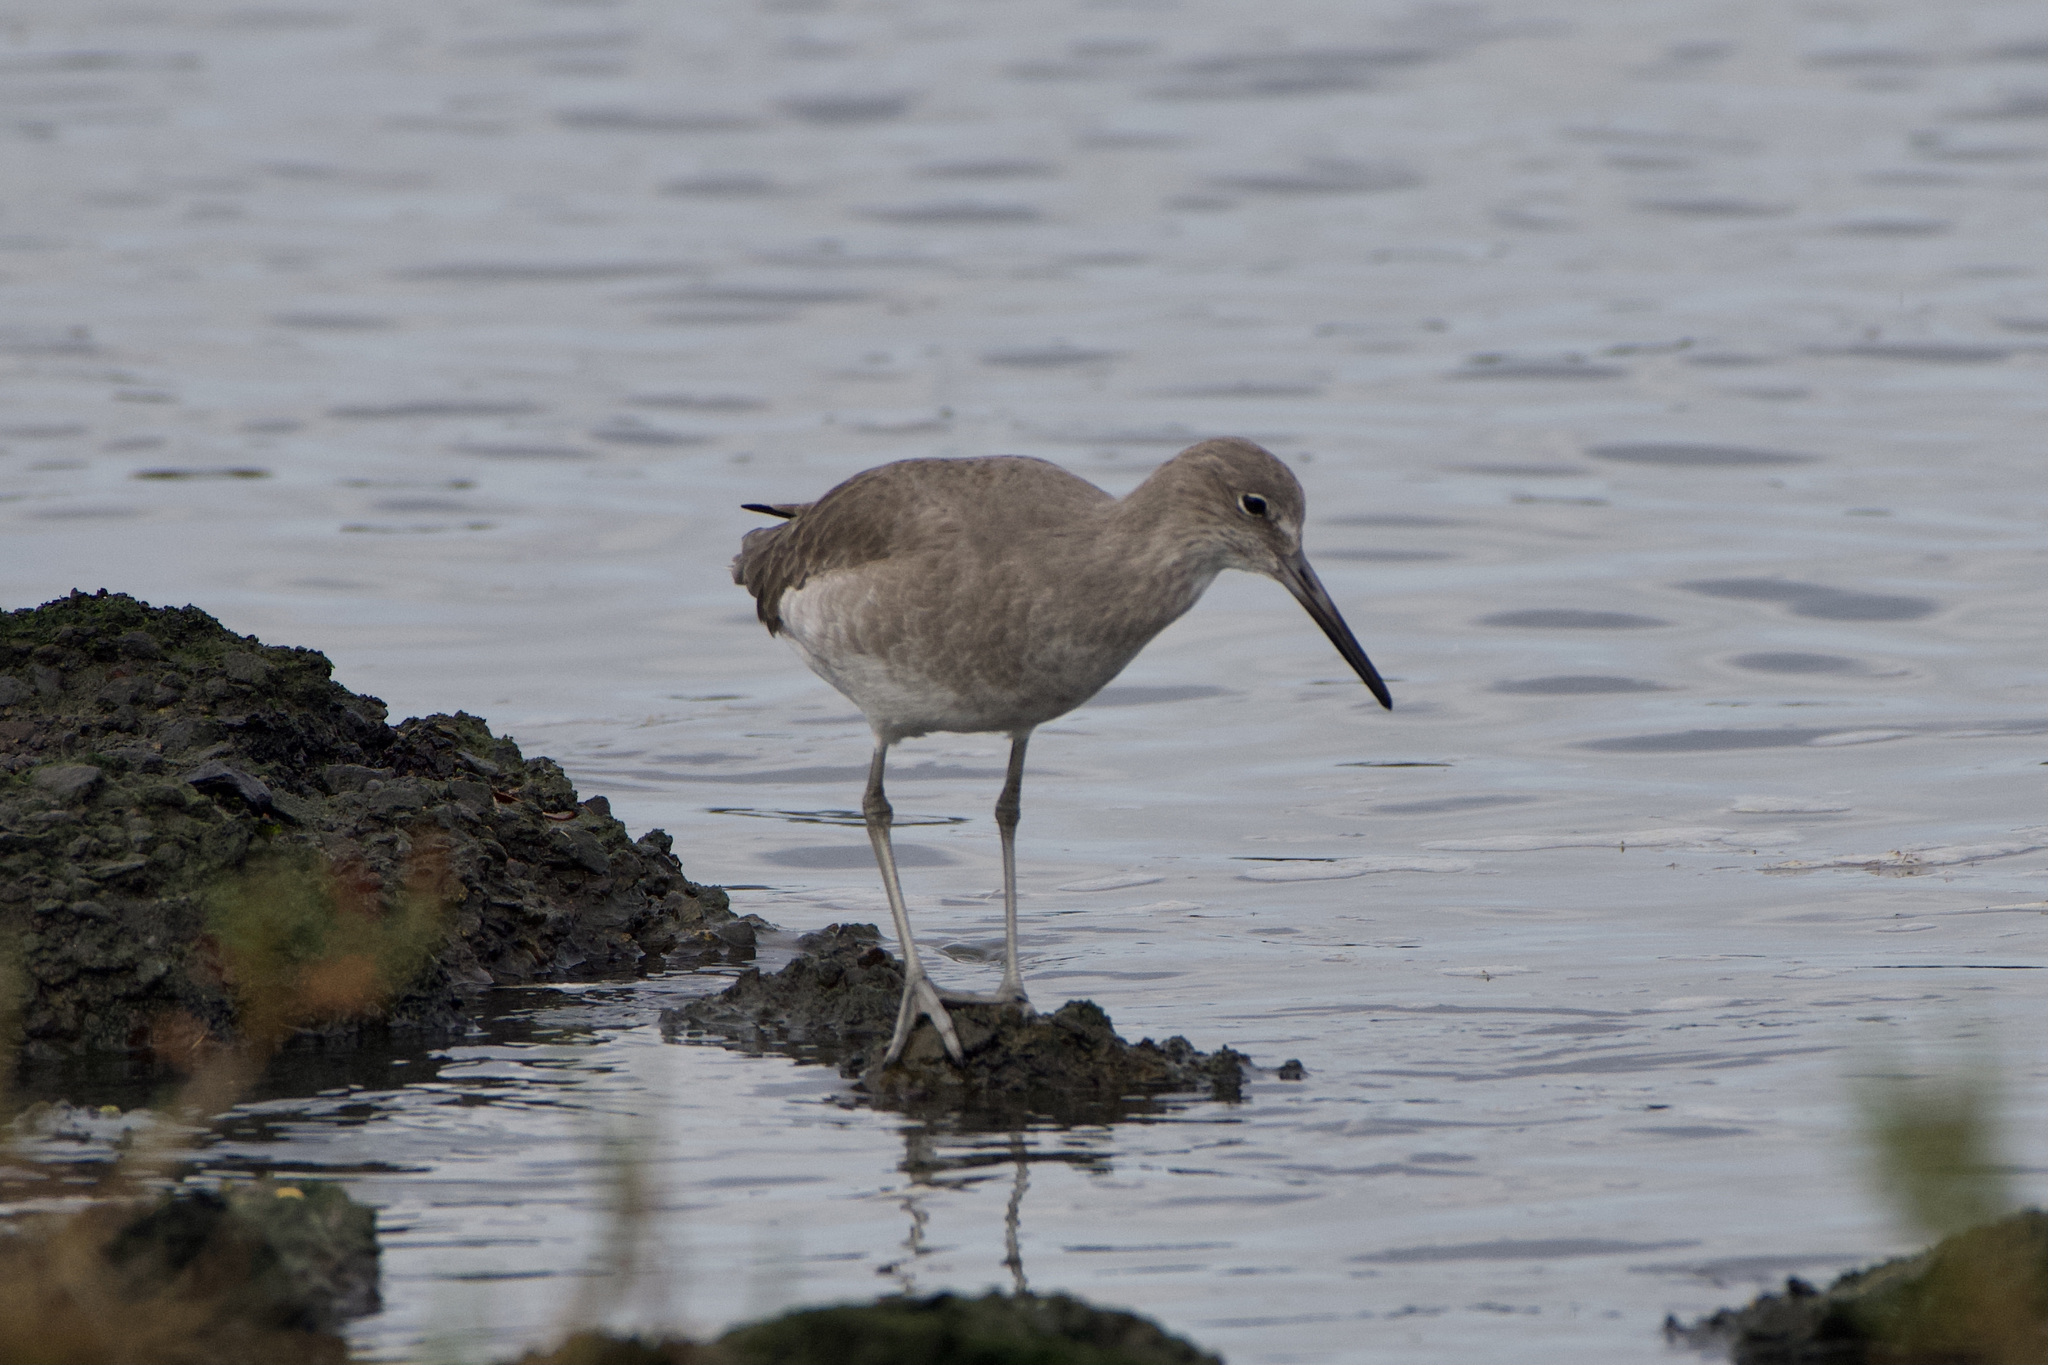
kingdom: Animalia
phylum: Chordata
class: Aves
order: Charadriiformes
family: Scolopacidae
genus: Tringa
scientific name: Tringa semipalmata
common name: Willet
